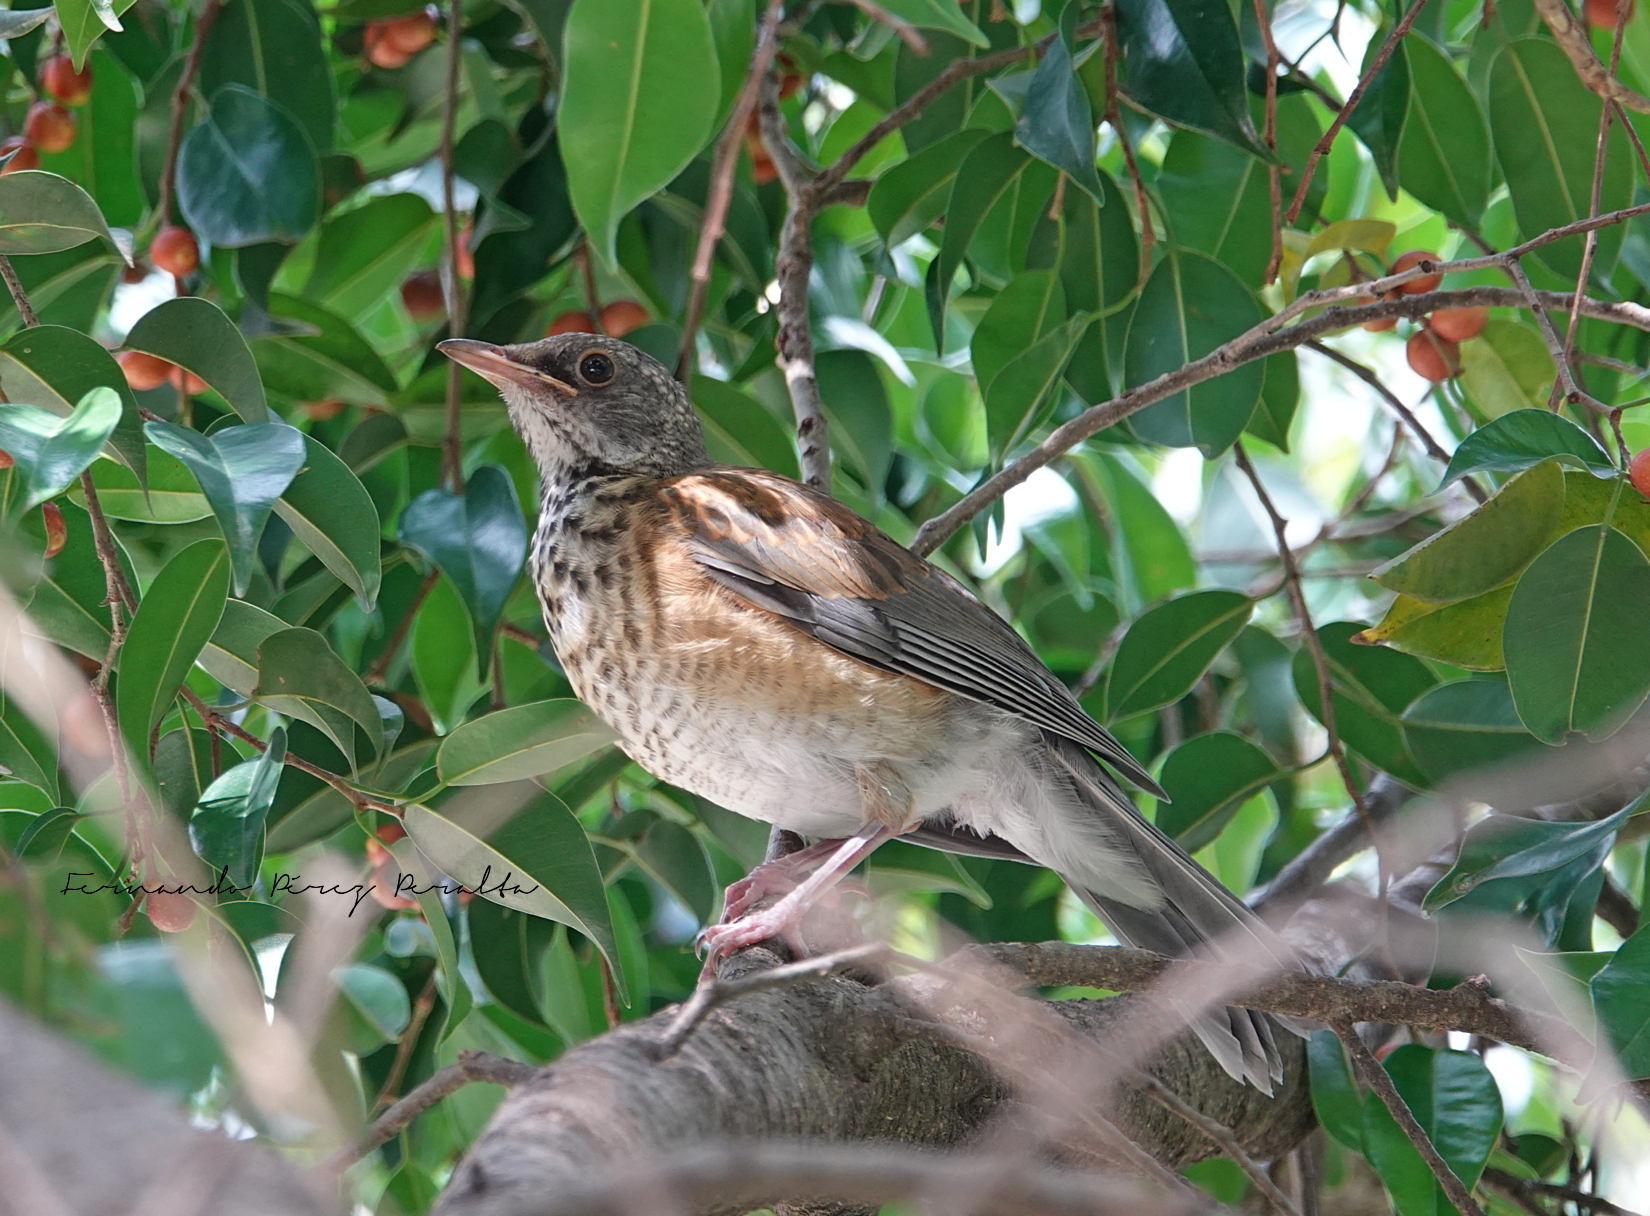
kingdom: Animalia
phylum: Chordata
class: Aves
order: Passeriformes
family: Turdidae
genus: Turdus
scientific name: Turdus rufopalliatus
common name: Rufous-backed robin
